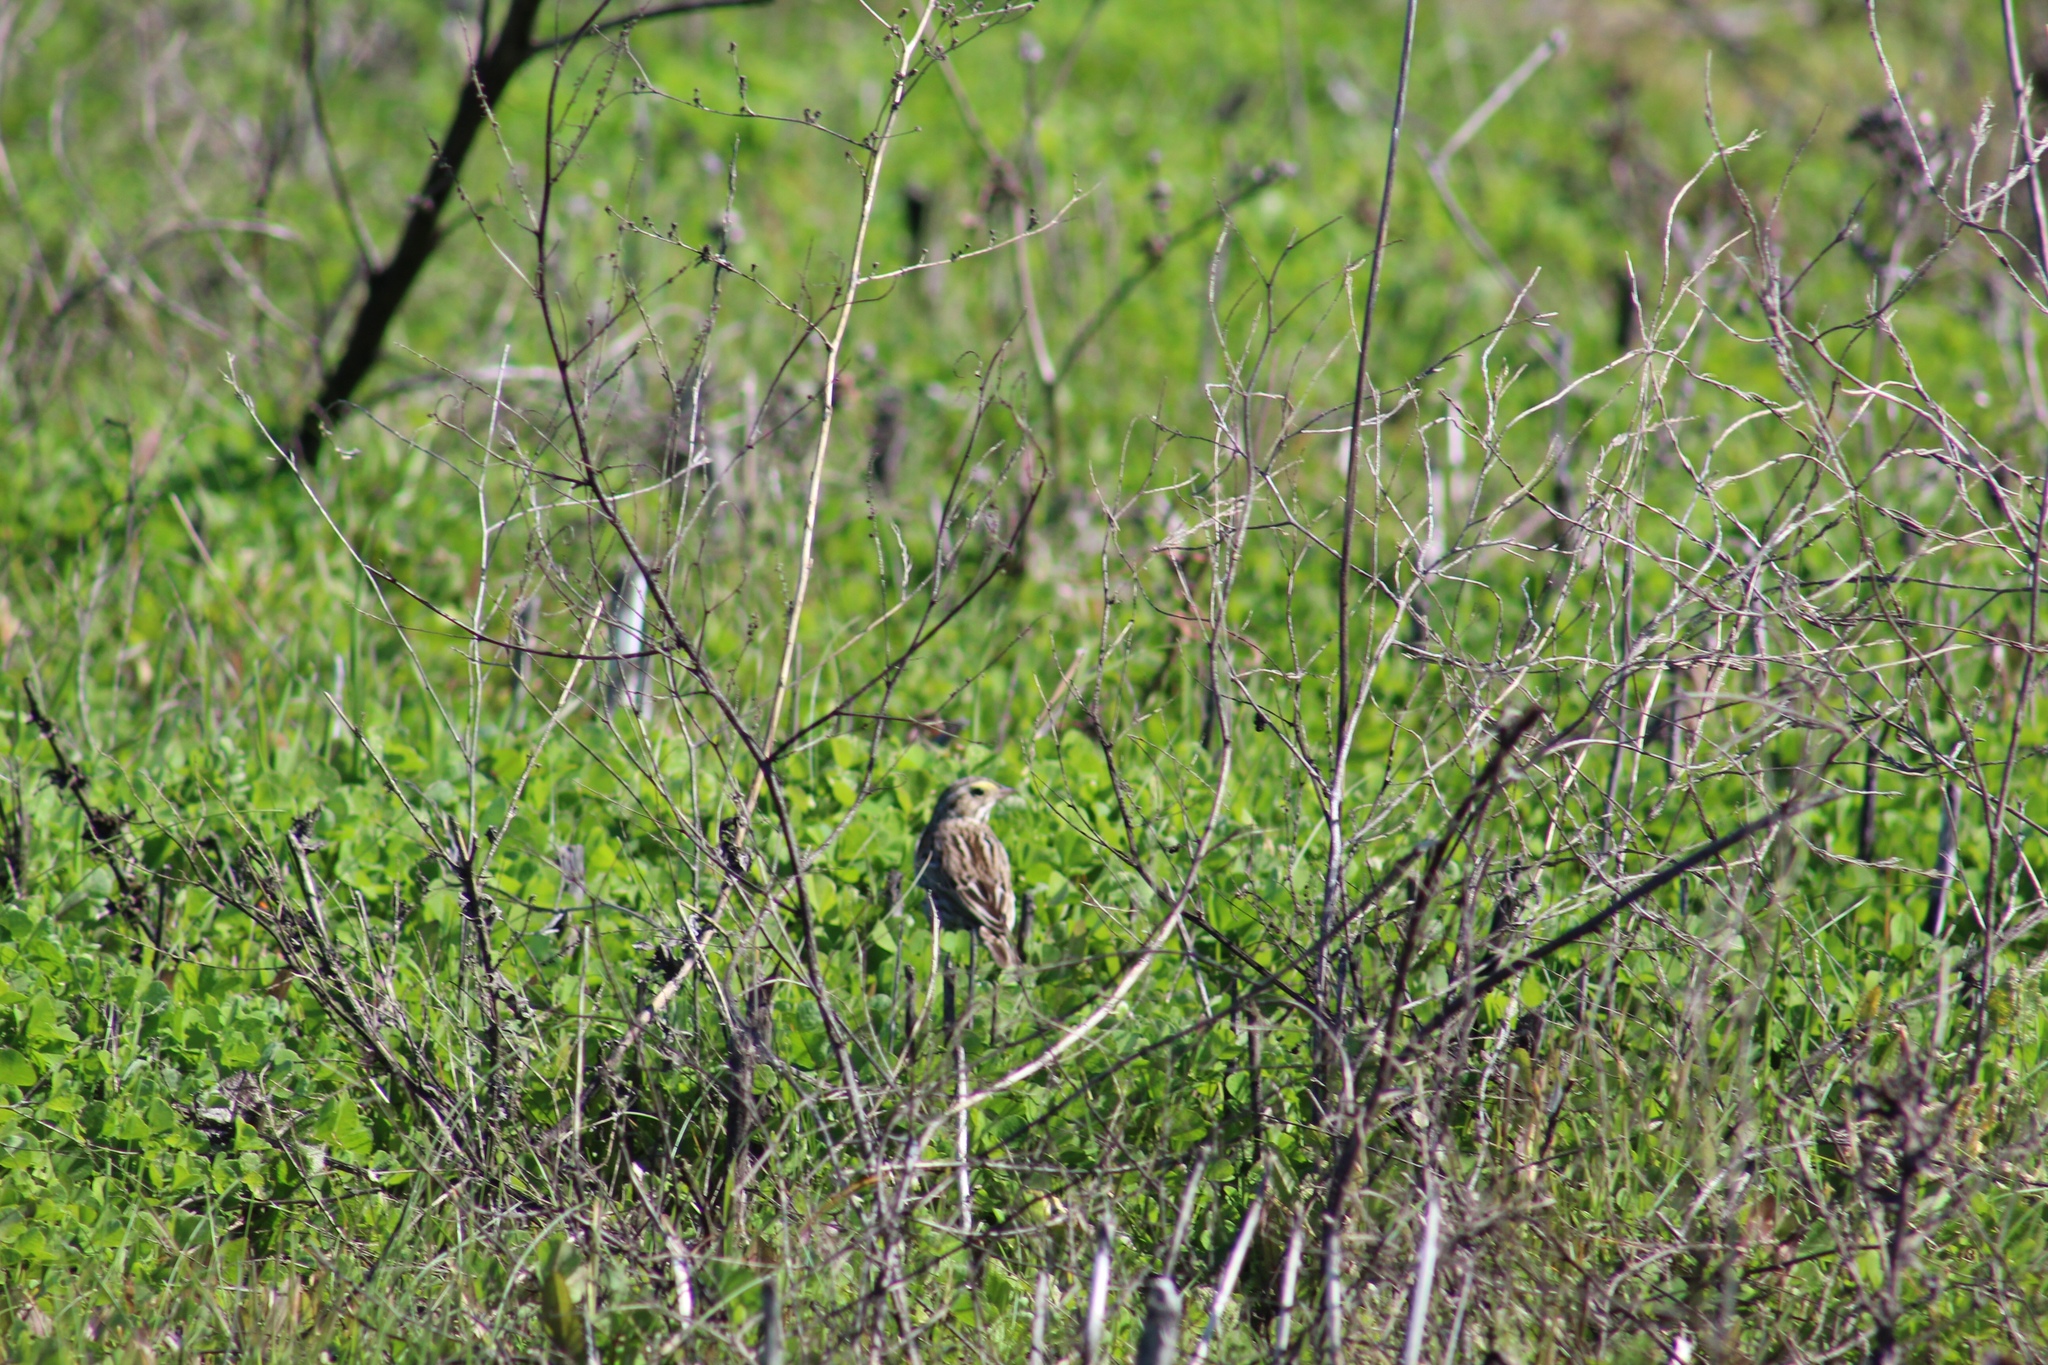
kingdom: Animalia
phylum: Chordata
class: Aves
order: Passeriformes
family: Passerellidae
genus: Passerculus
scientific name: Passerculus sandwichensis
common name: Savannah sparrow
